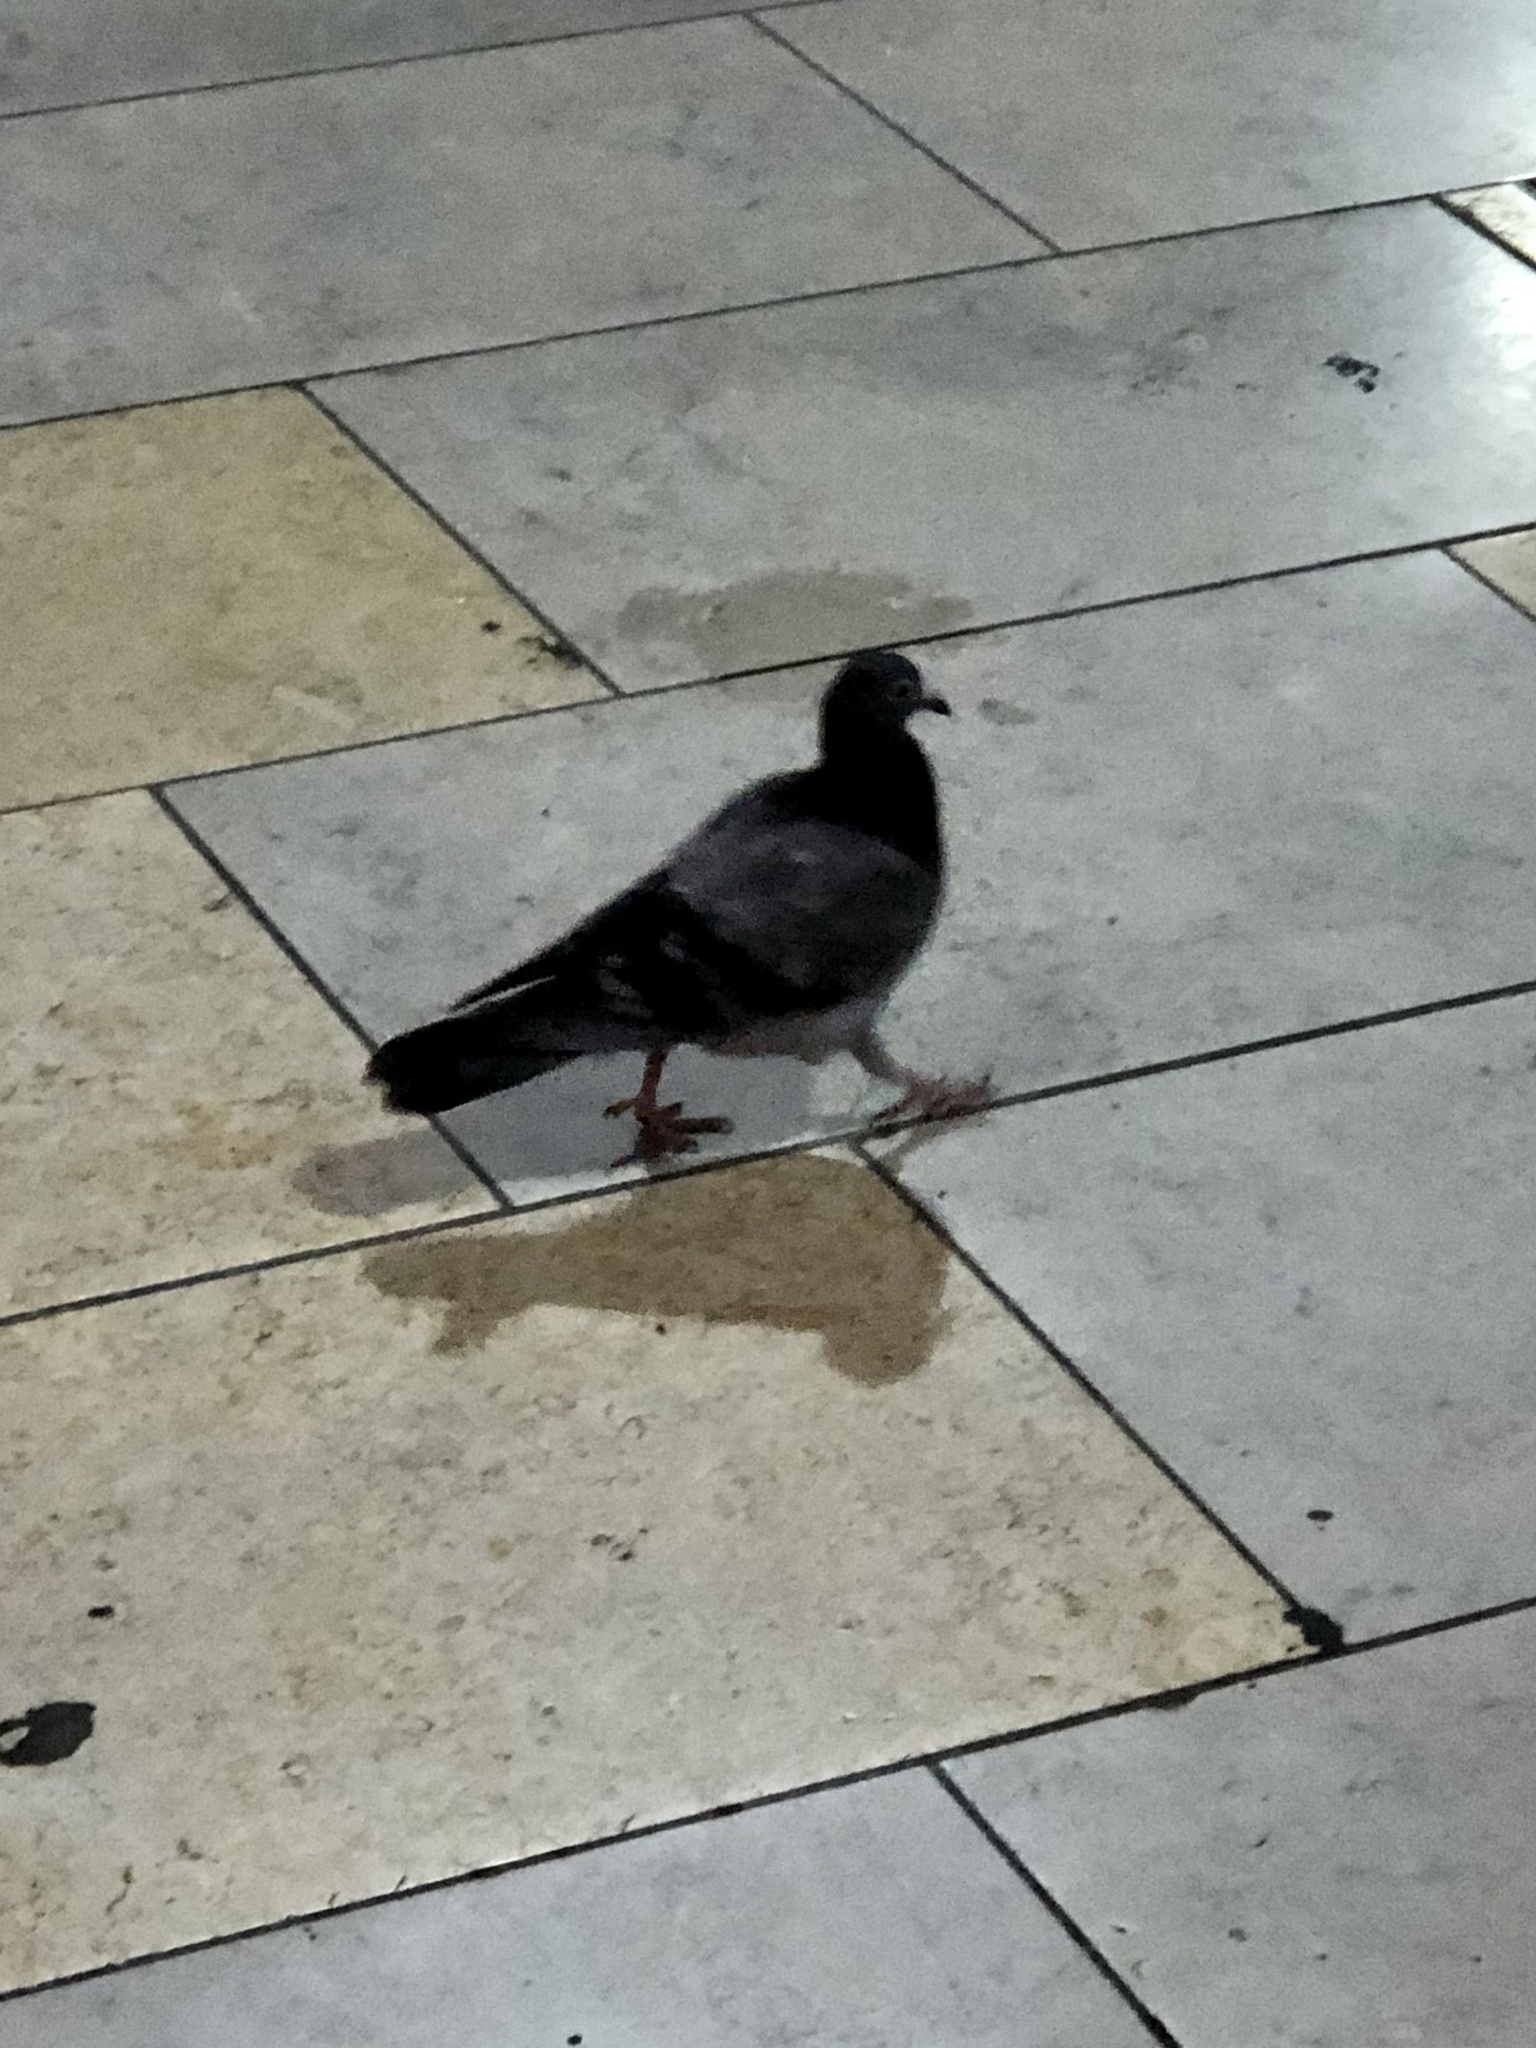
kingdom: Animalia
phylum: Chordata
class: Aves
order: Columbiformes
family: Columbidae
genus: Columba
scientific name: Columba livia
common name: Rock pigeon
